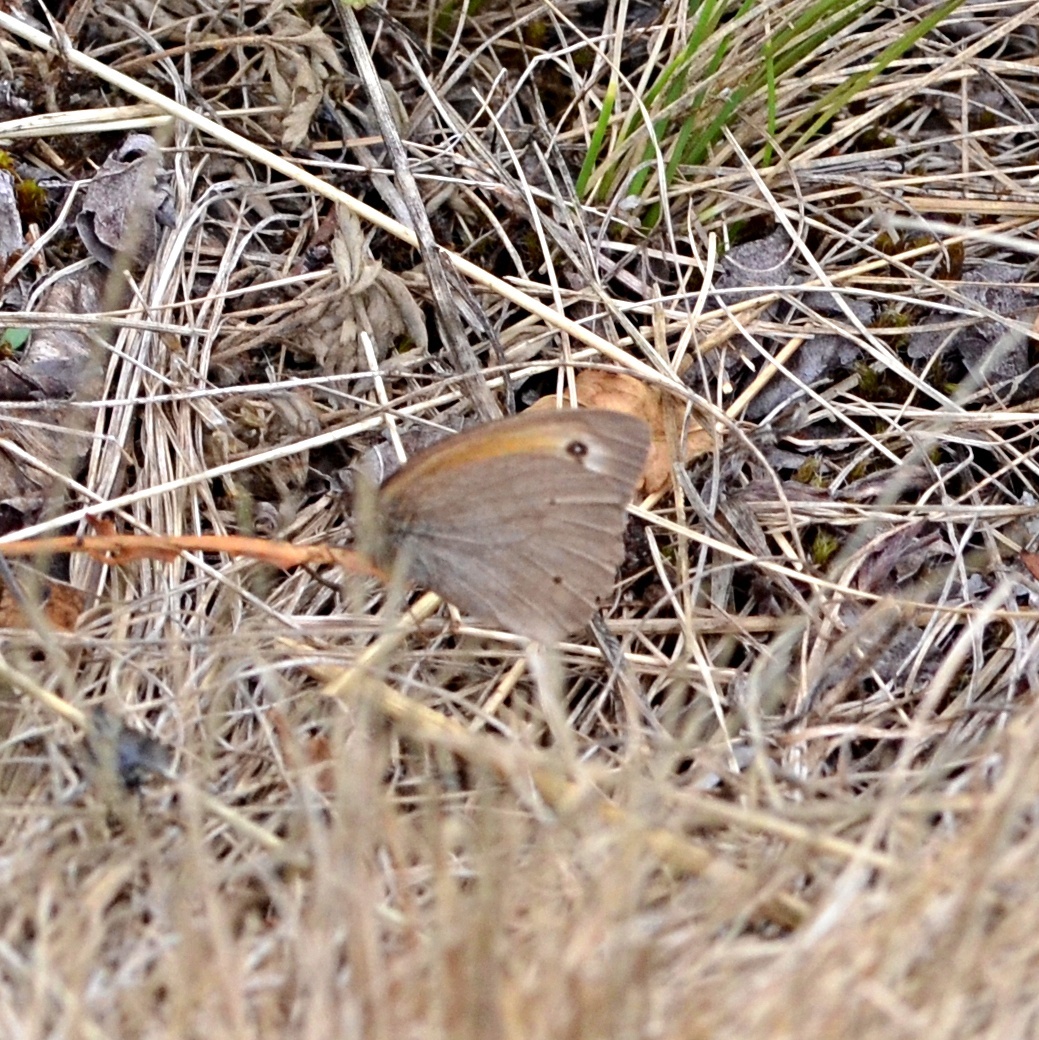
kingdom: Animalia
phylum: Arthropoda
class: Insecta
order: Lepidoptera
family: Nymphalidae
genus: Maniola
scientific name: Maniola jurtina
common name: Meadow brown
